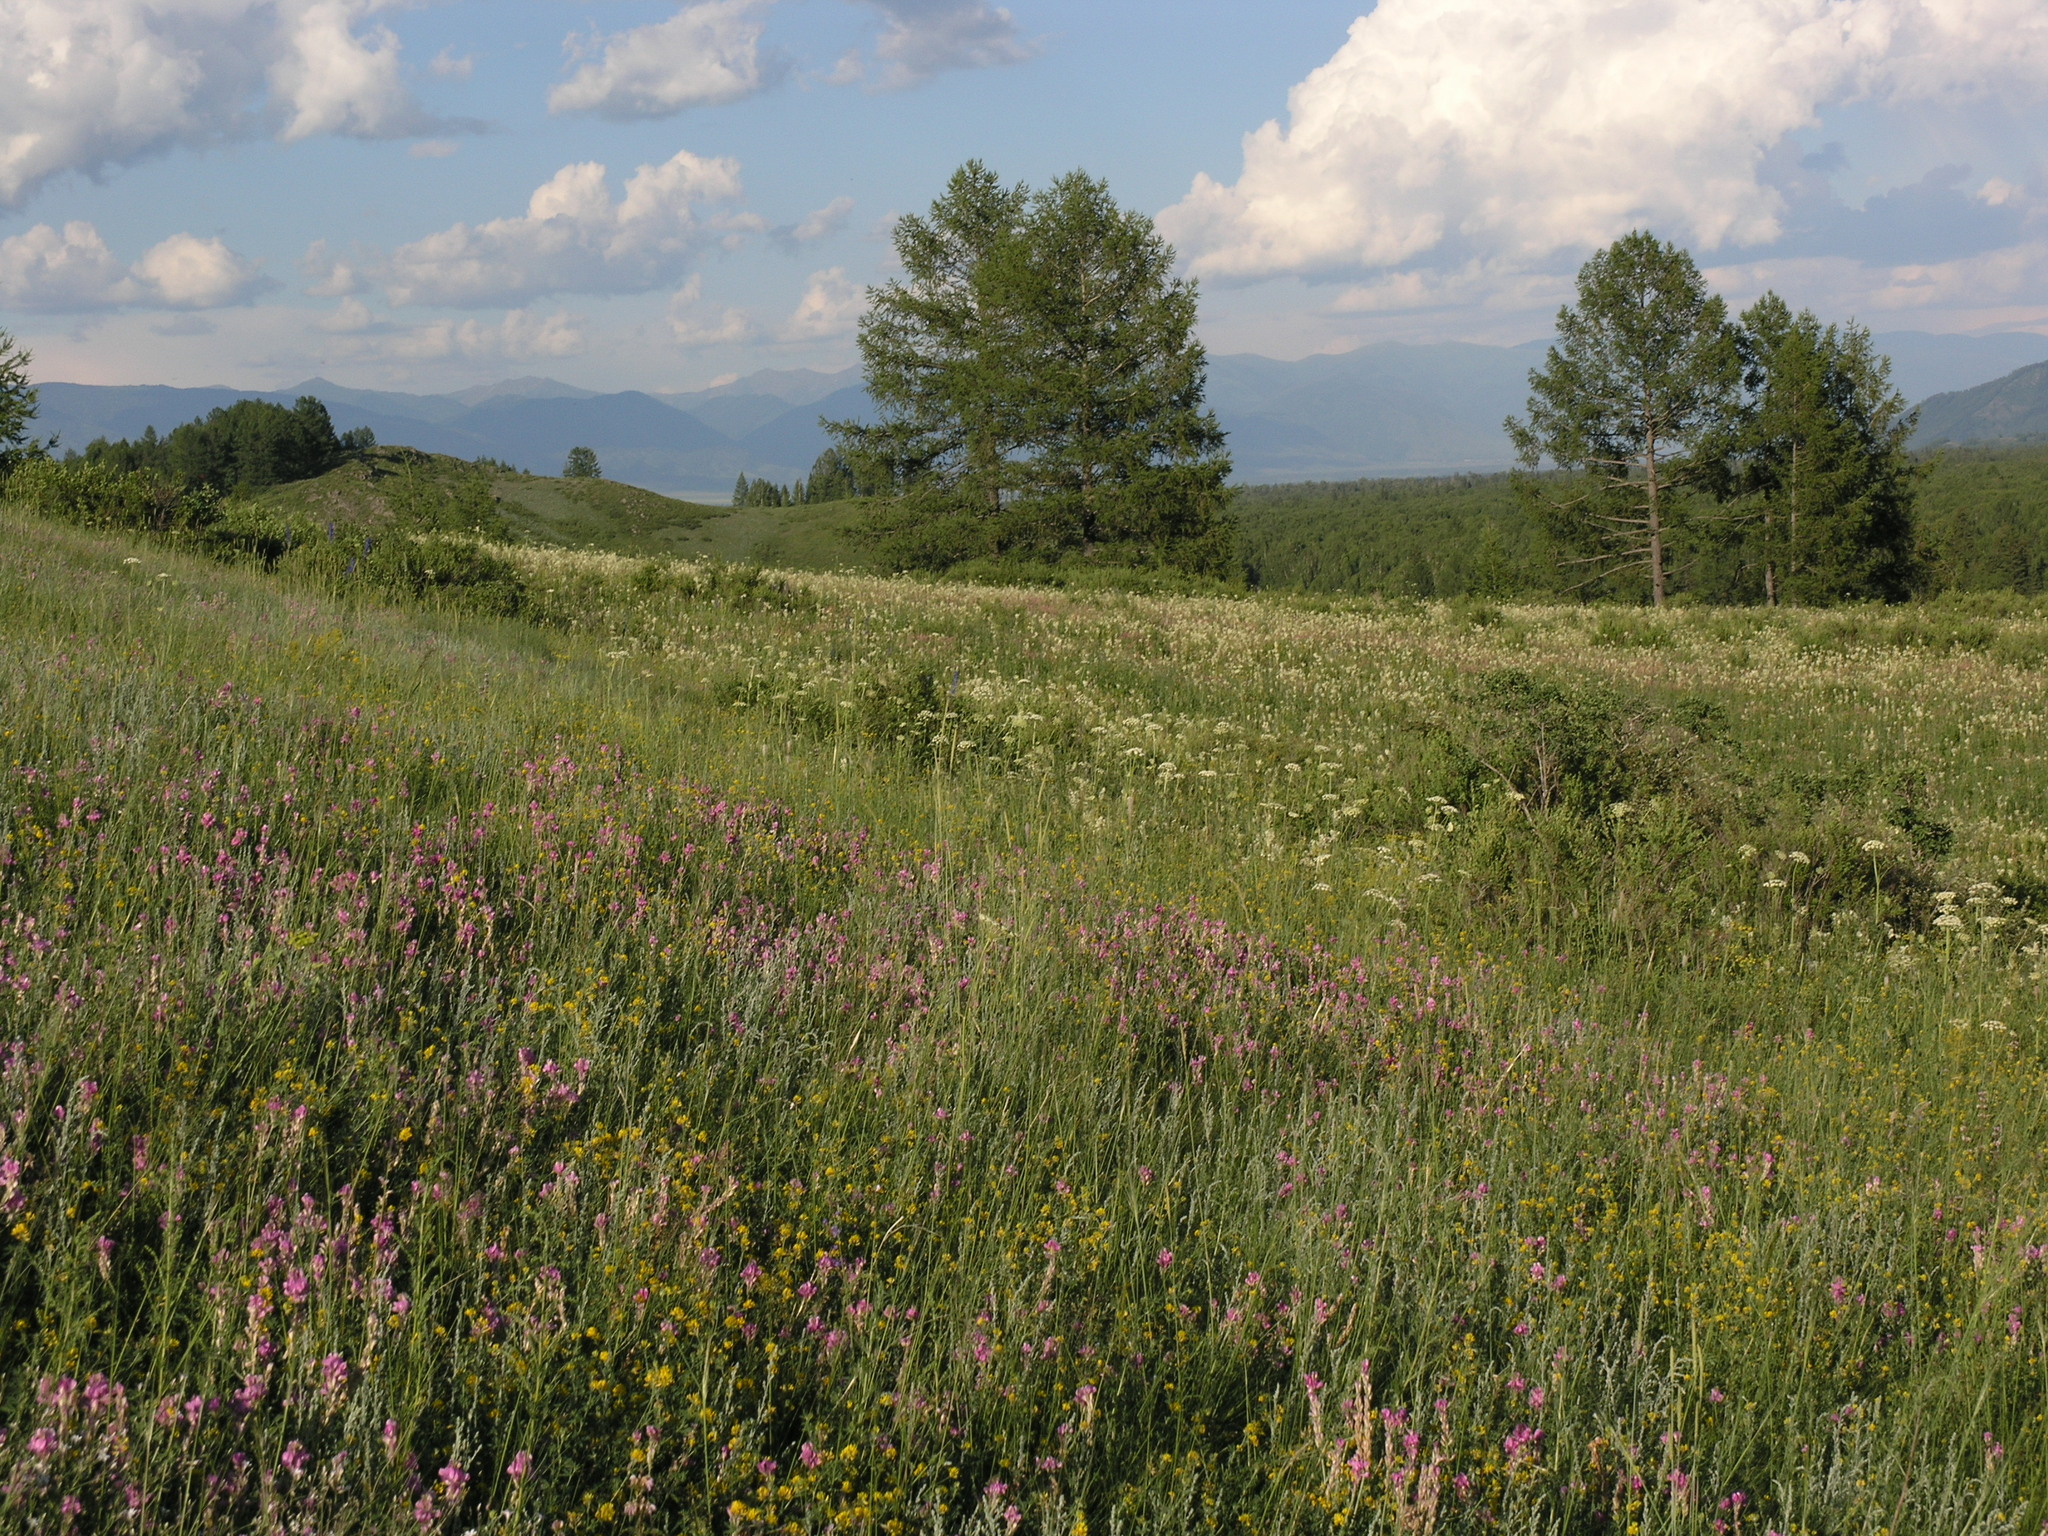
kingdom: Plantae
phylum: Tracheophyta
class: Magnoliopsida
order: Fabales
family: Fabaceae
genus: Hedysarum
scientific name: Hedysarum gmelinii
